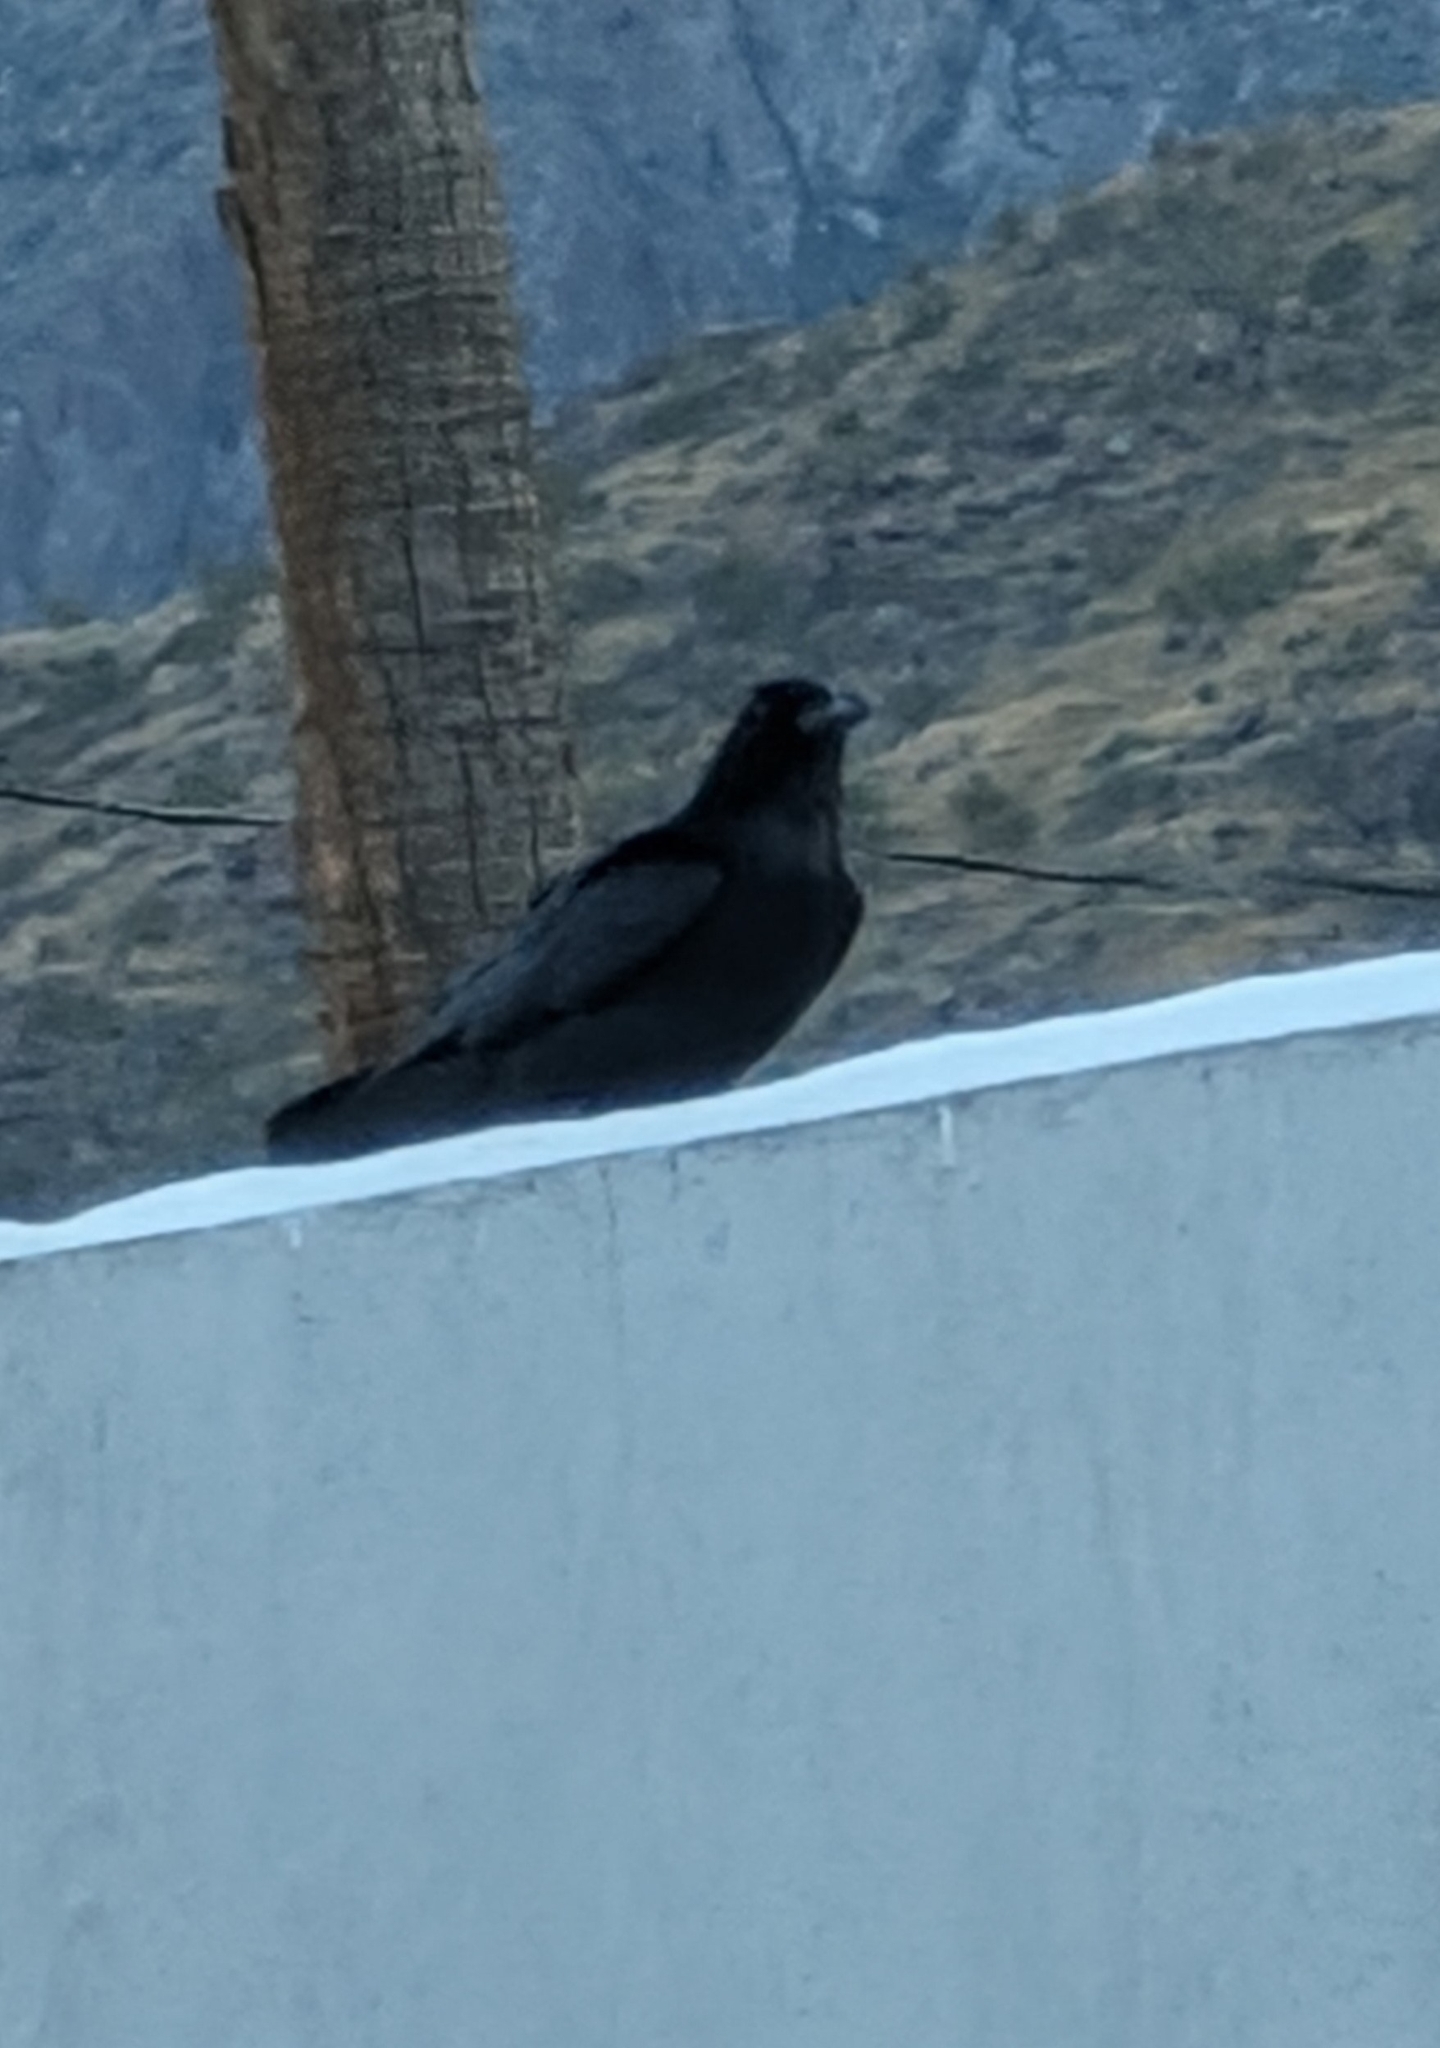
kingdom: Animalia
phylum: Chordata
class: Aves
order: Passeriformes
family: Corvidae
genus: Corvus
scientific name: Corvus corax
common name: Common raven
